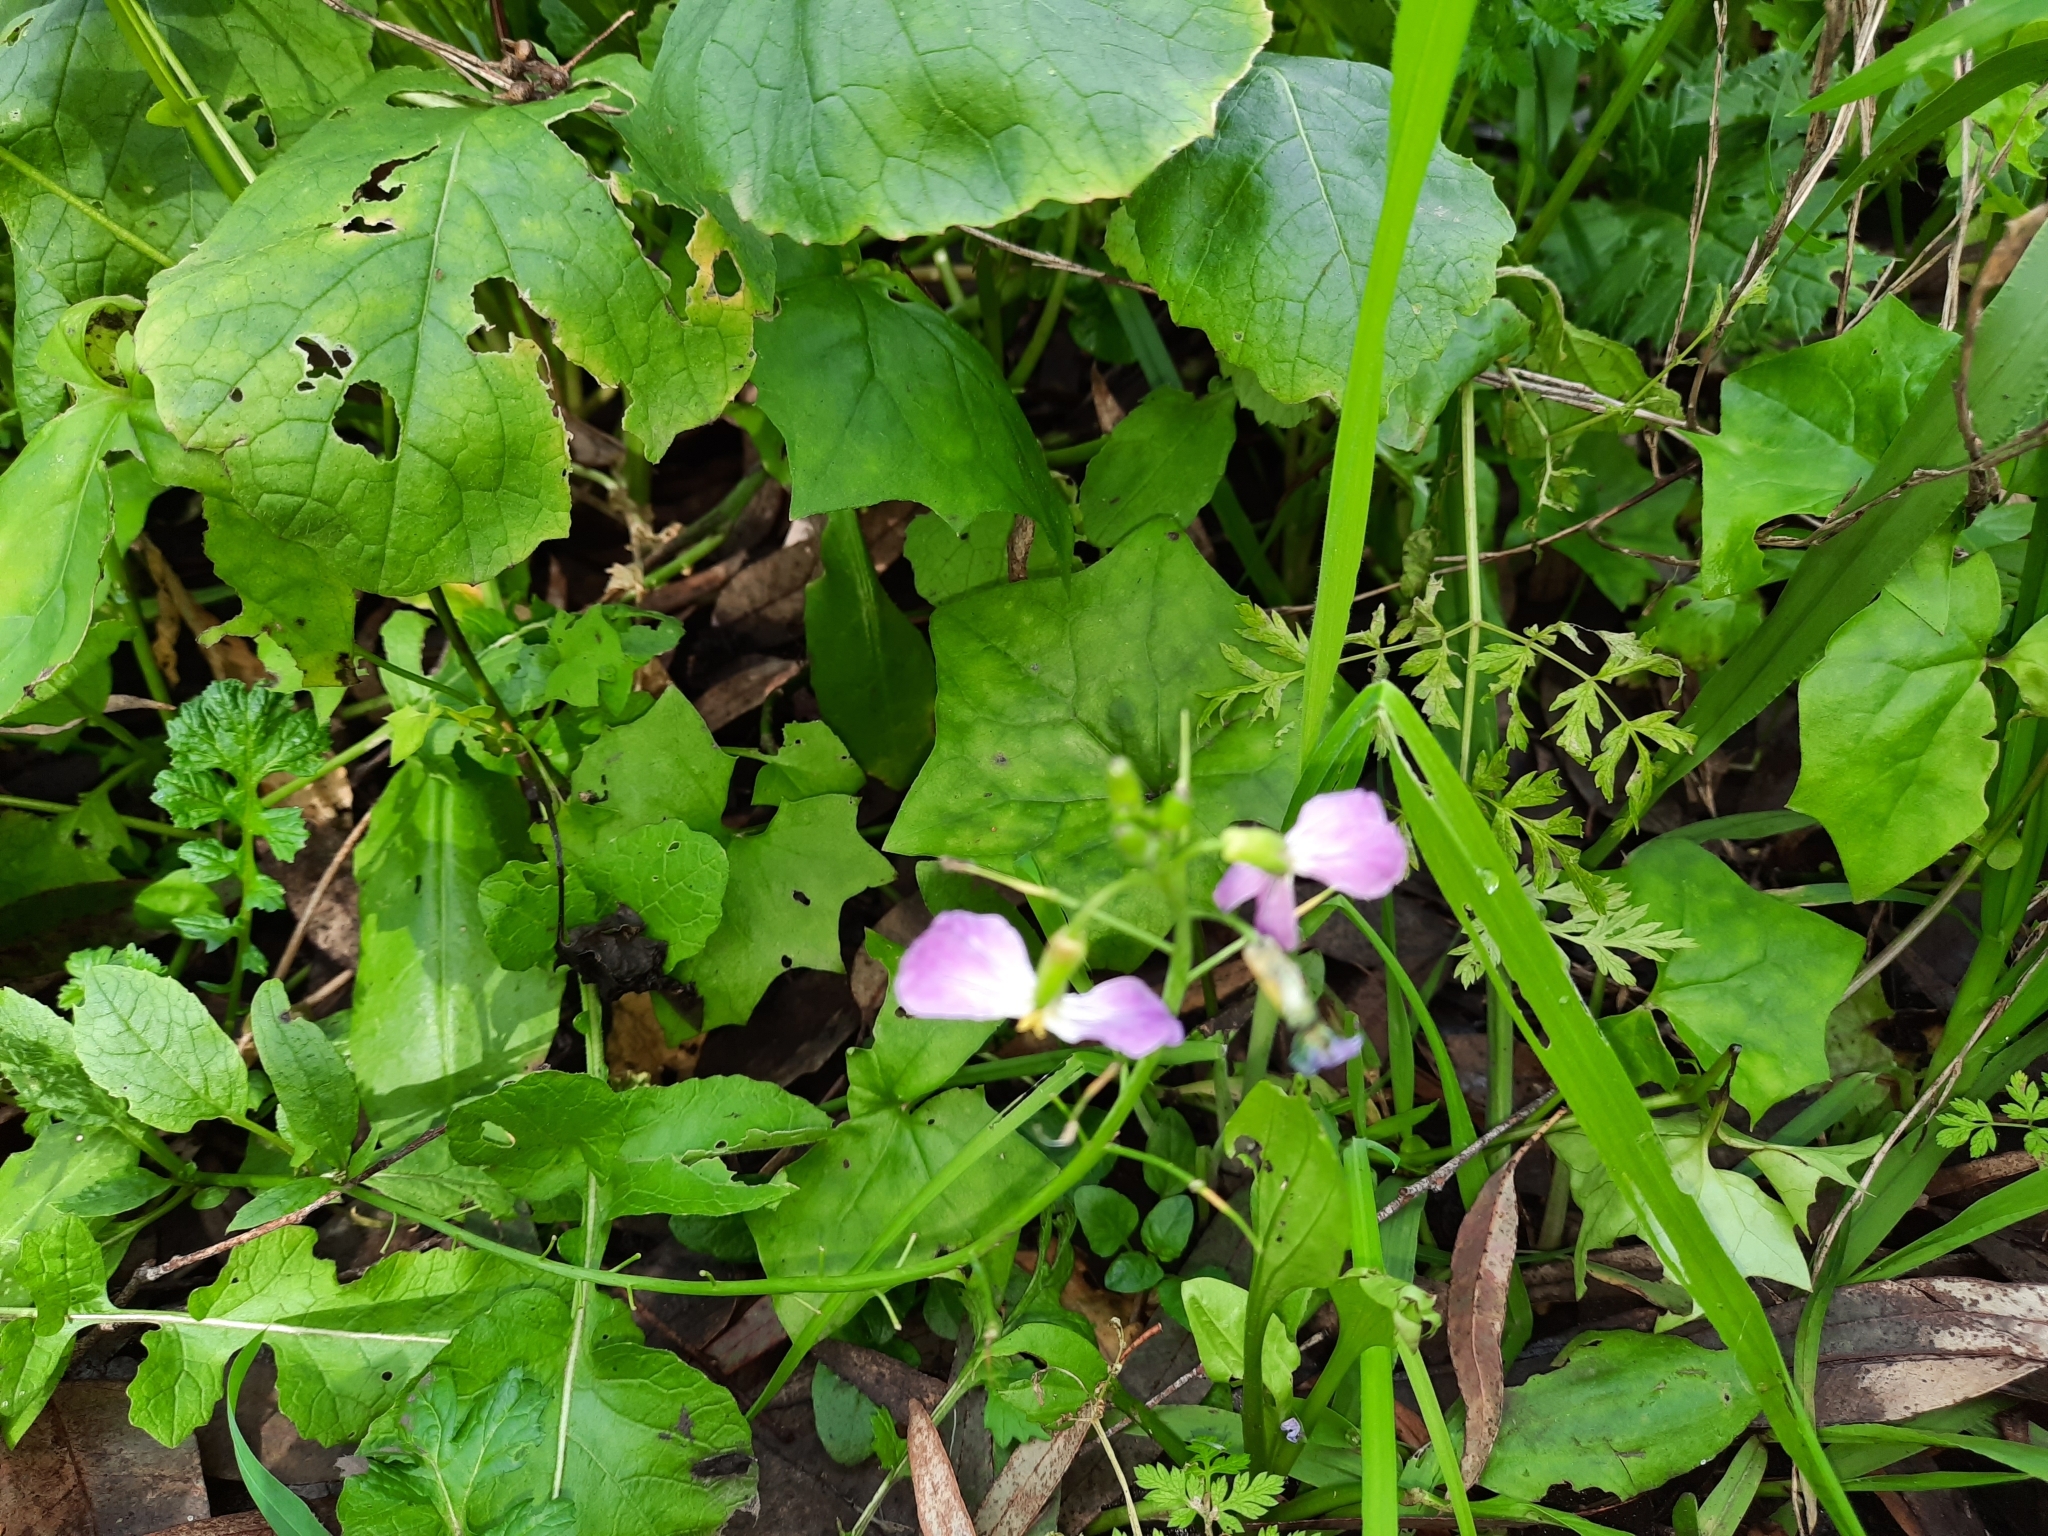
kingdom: Plantae
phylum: Tracheophyta
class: Magnoliopsida
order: Brassicales
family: Brassicaceae
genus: Raphanus
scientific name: Raphanus sativus
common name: Cultivated radish
